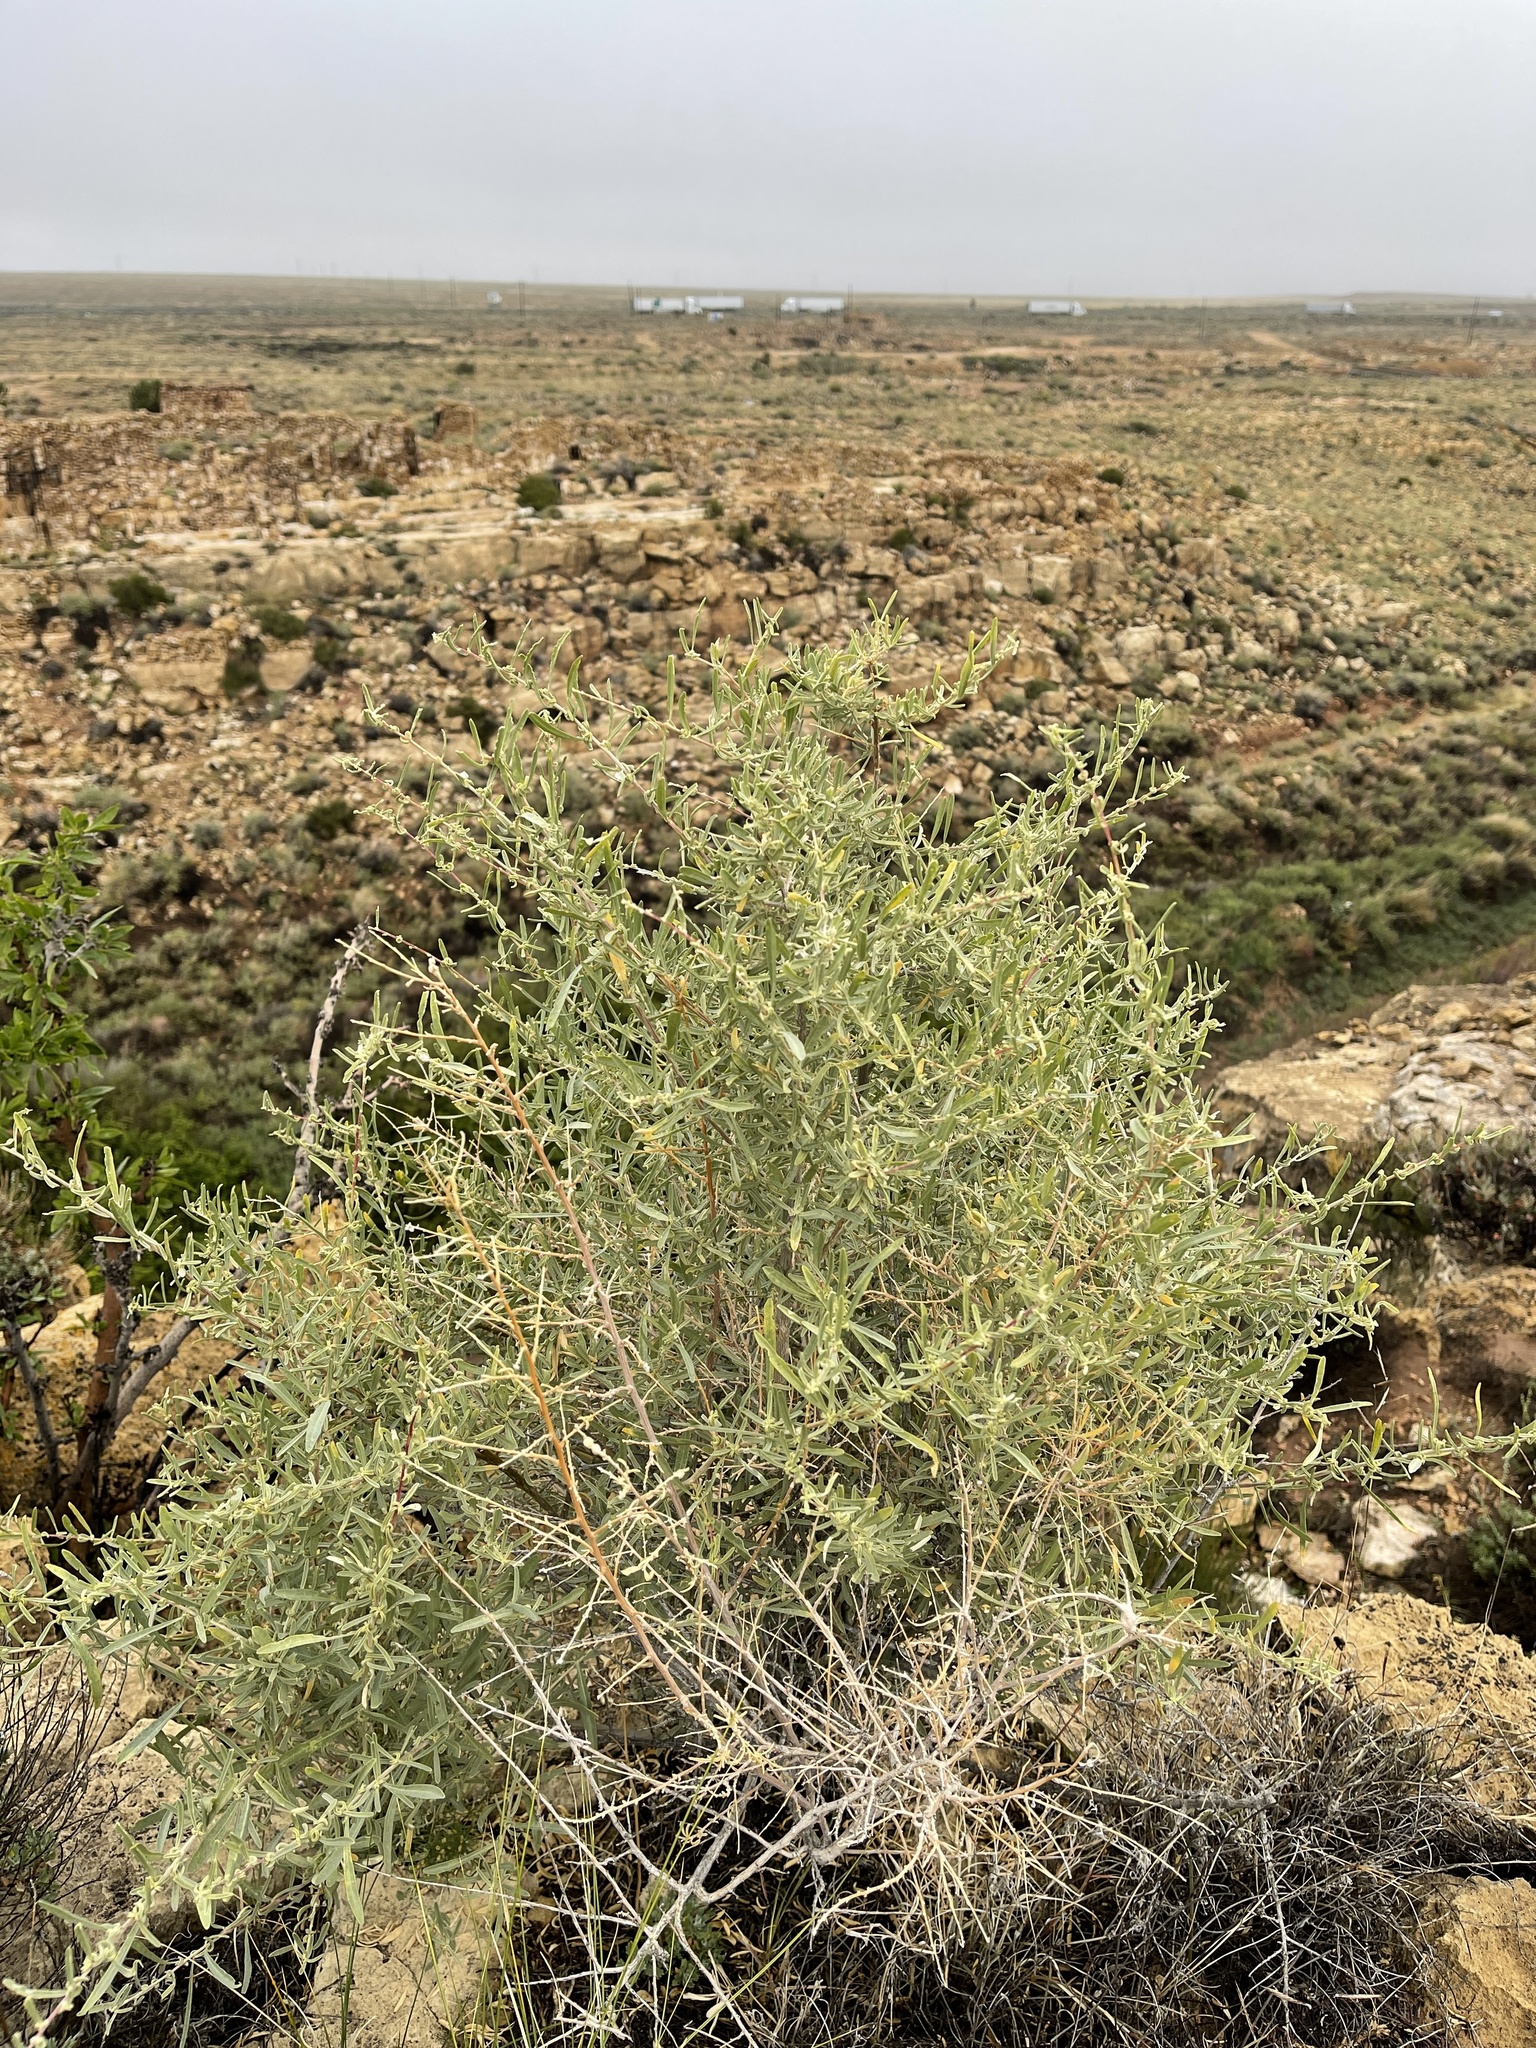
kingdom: Plantae
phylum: Tracheophyta
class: Magnoliopsida
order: Caryophyllales
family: Amaranthaceae
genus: Atriplex
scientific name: Atriplex canescens
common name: Four-wing saltbush
